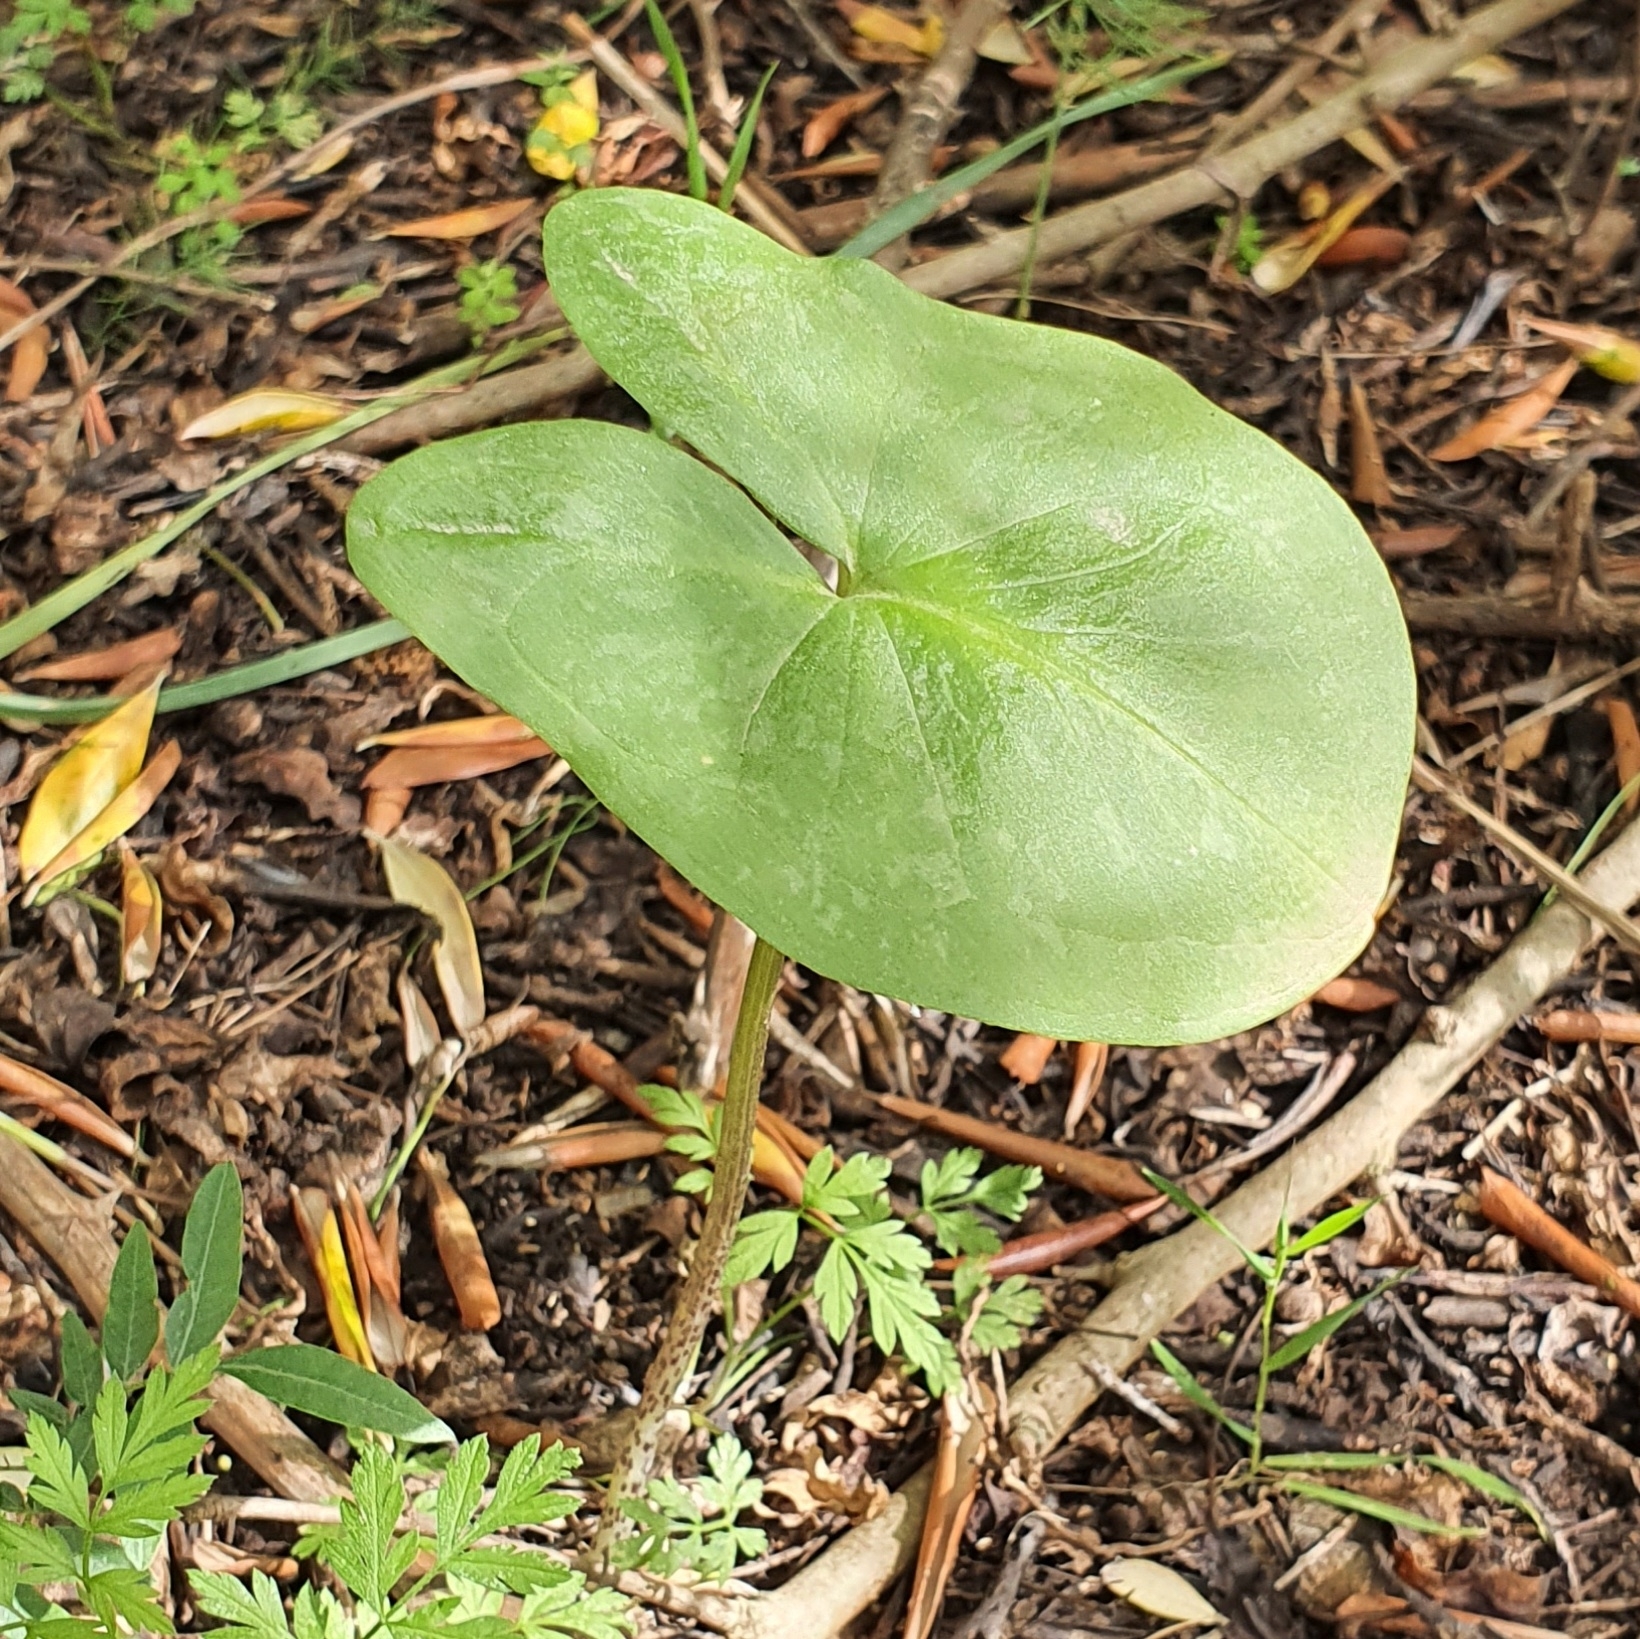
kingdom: Plantae
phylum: Tracheophyta
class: Liliopsida
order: Alismatales
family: Araceae
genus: Arisarum
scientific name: Arisarum vulgare
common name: Common arisarum
